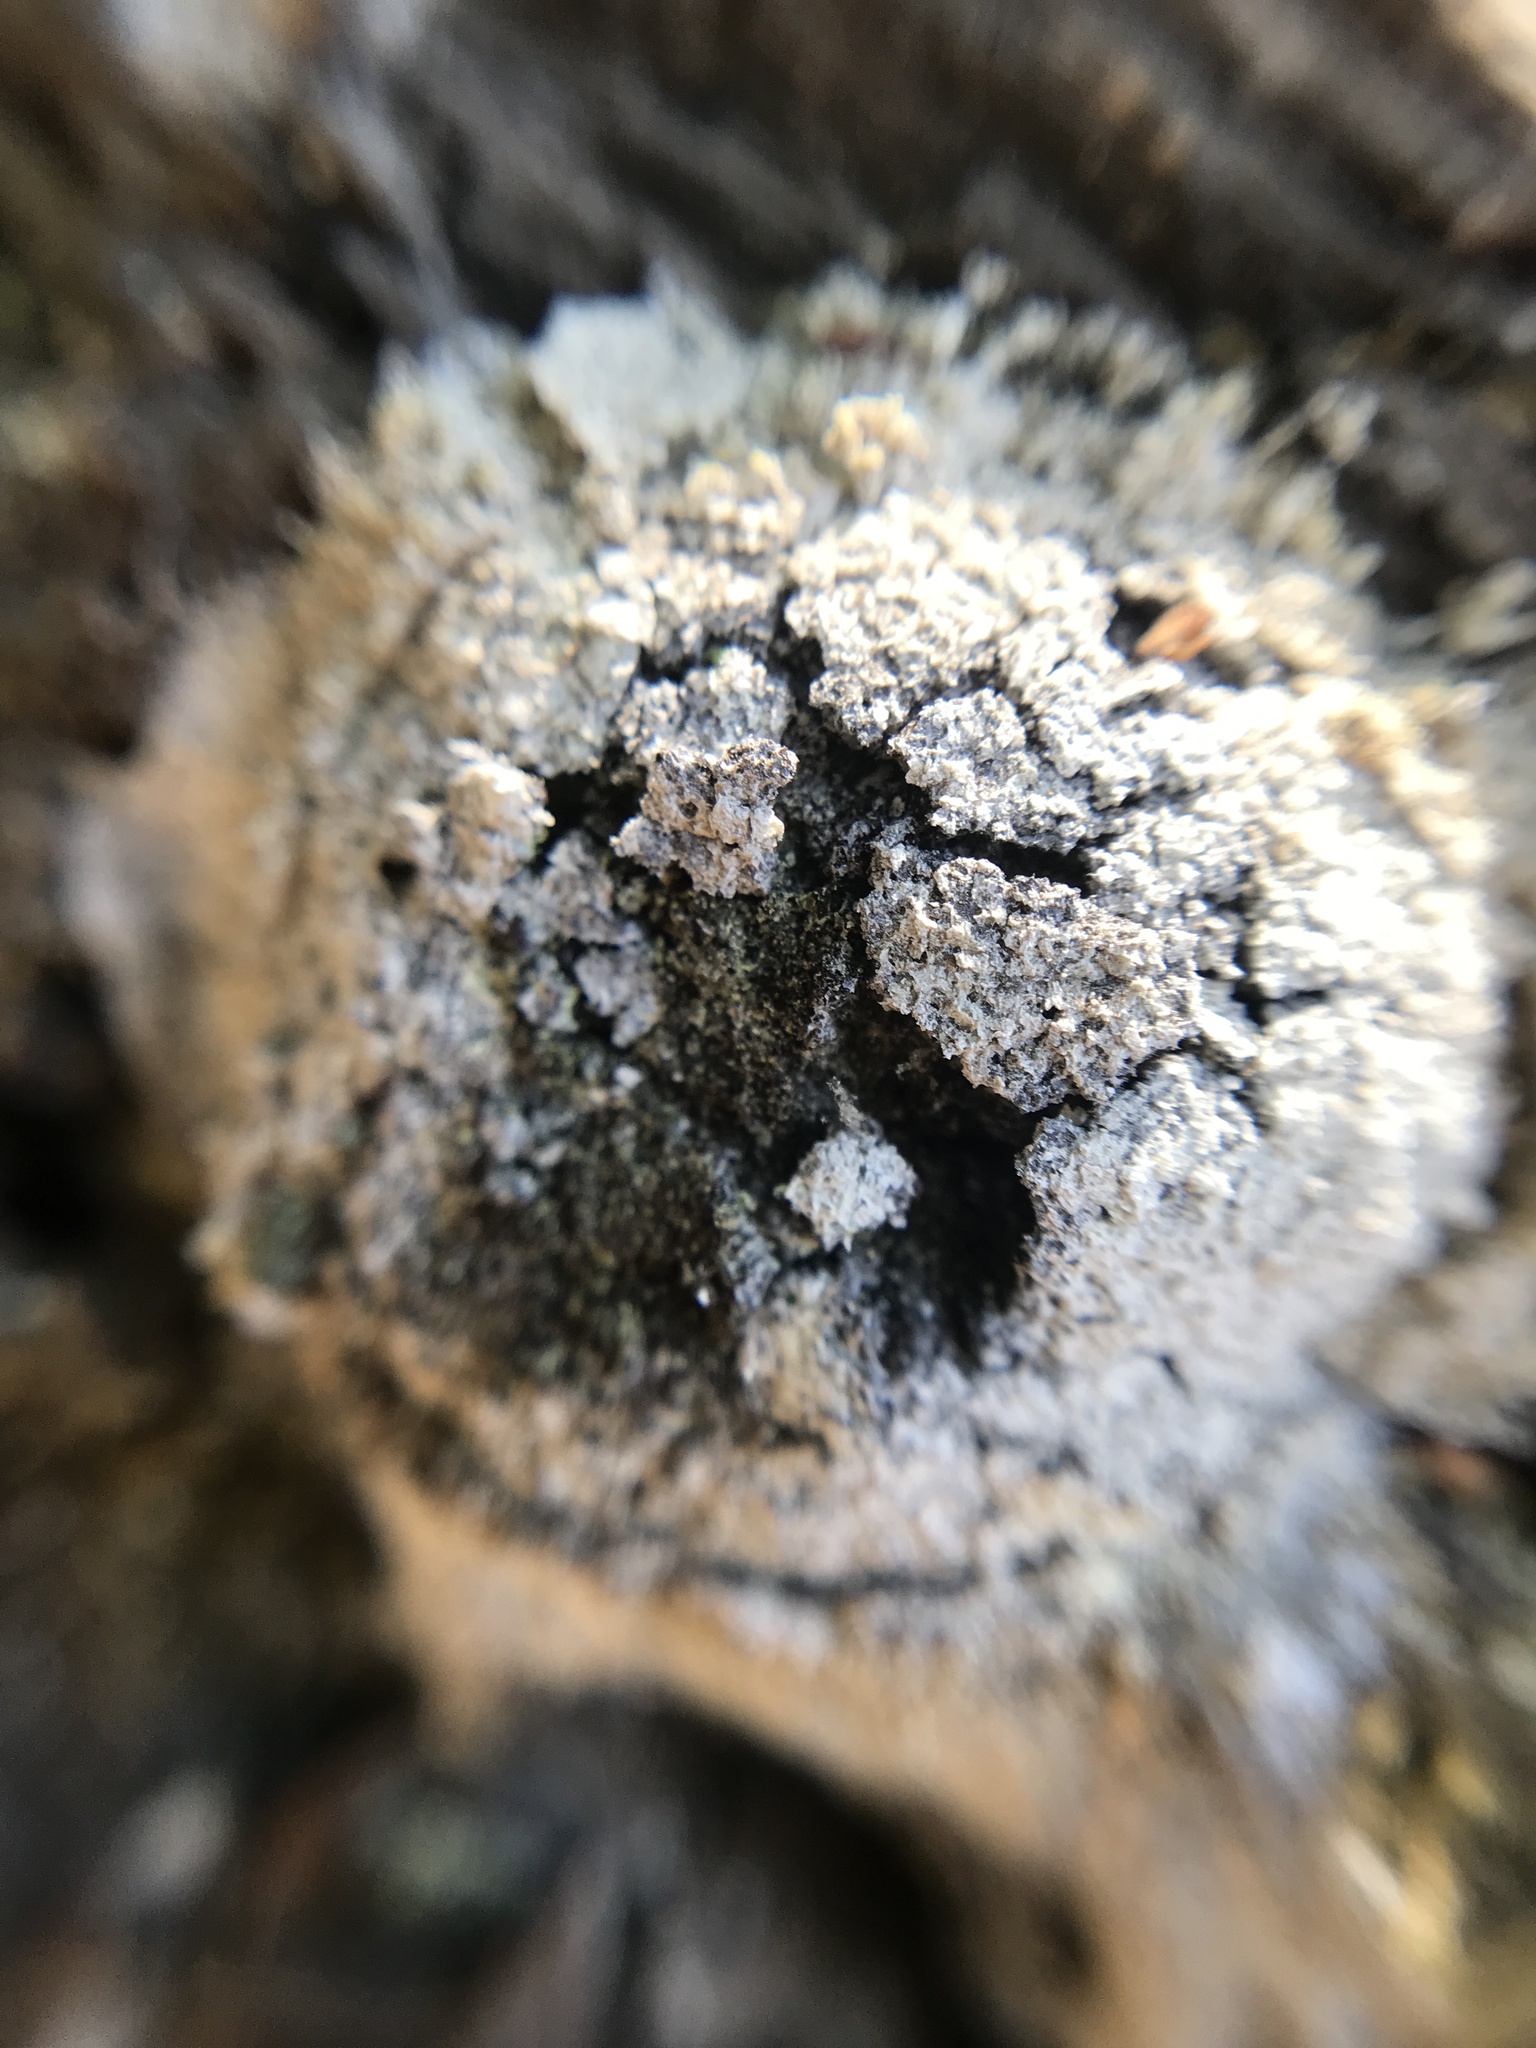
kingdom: Protozoa
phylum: Mycetozoa
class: Myxomycetes
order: Physarales
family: Physaraceae
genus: Fuligo
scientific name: Fuligo septica
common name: Dog vomit slime mold
